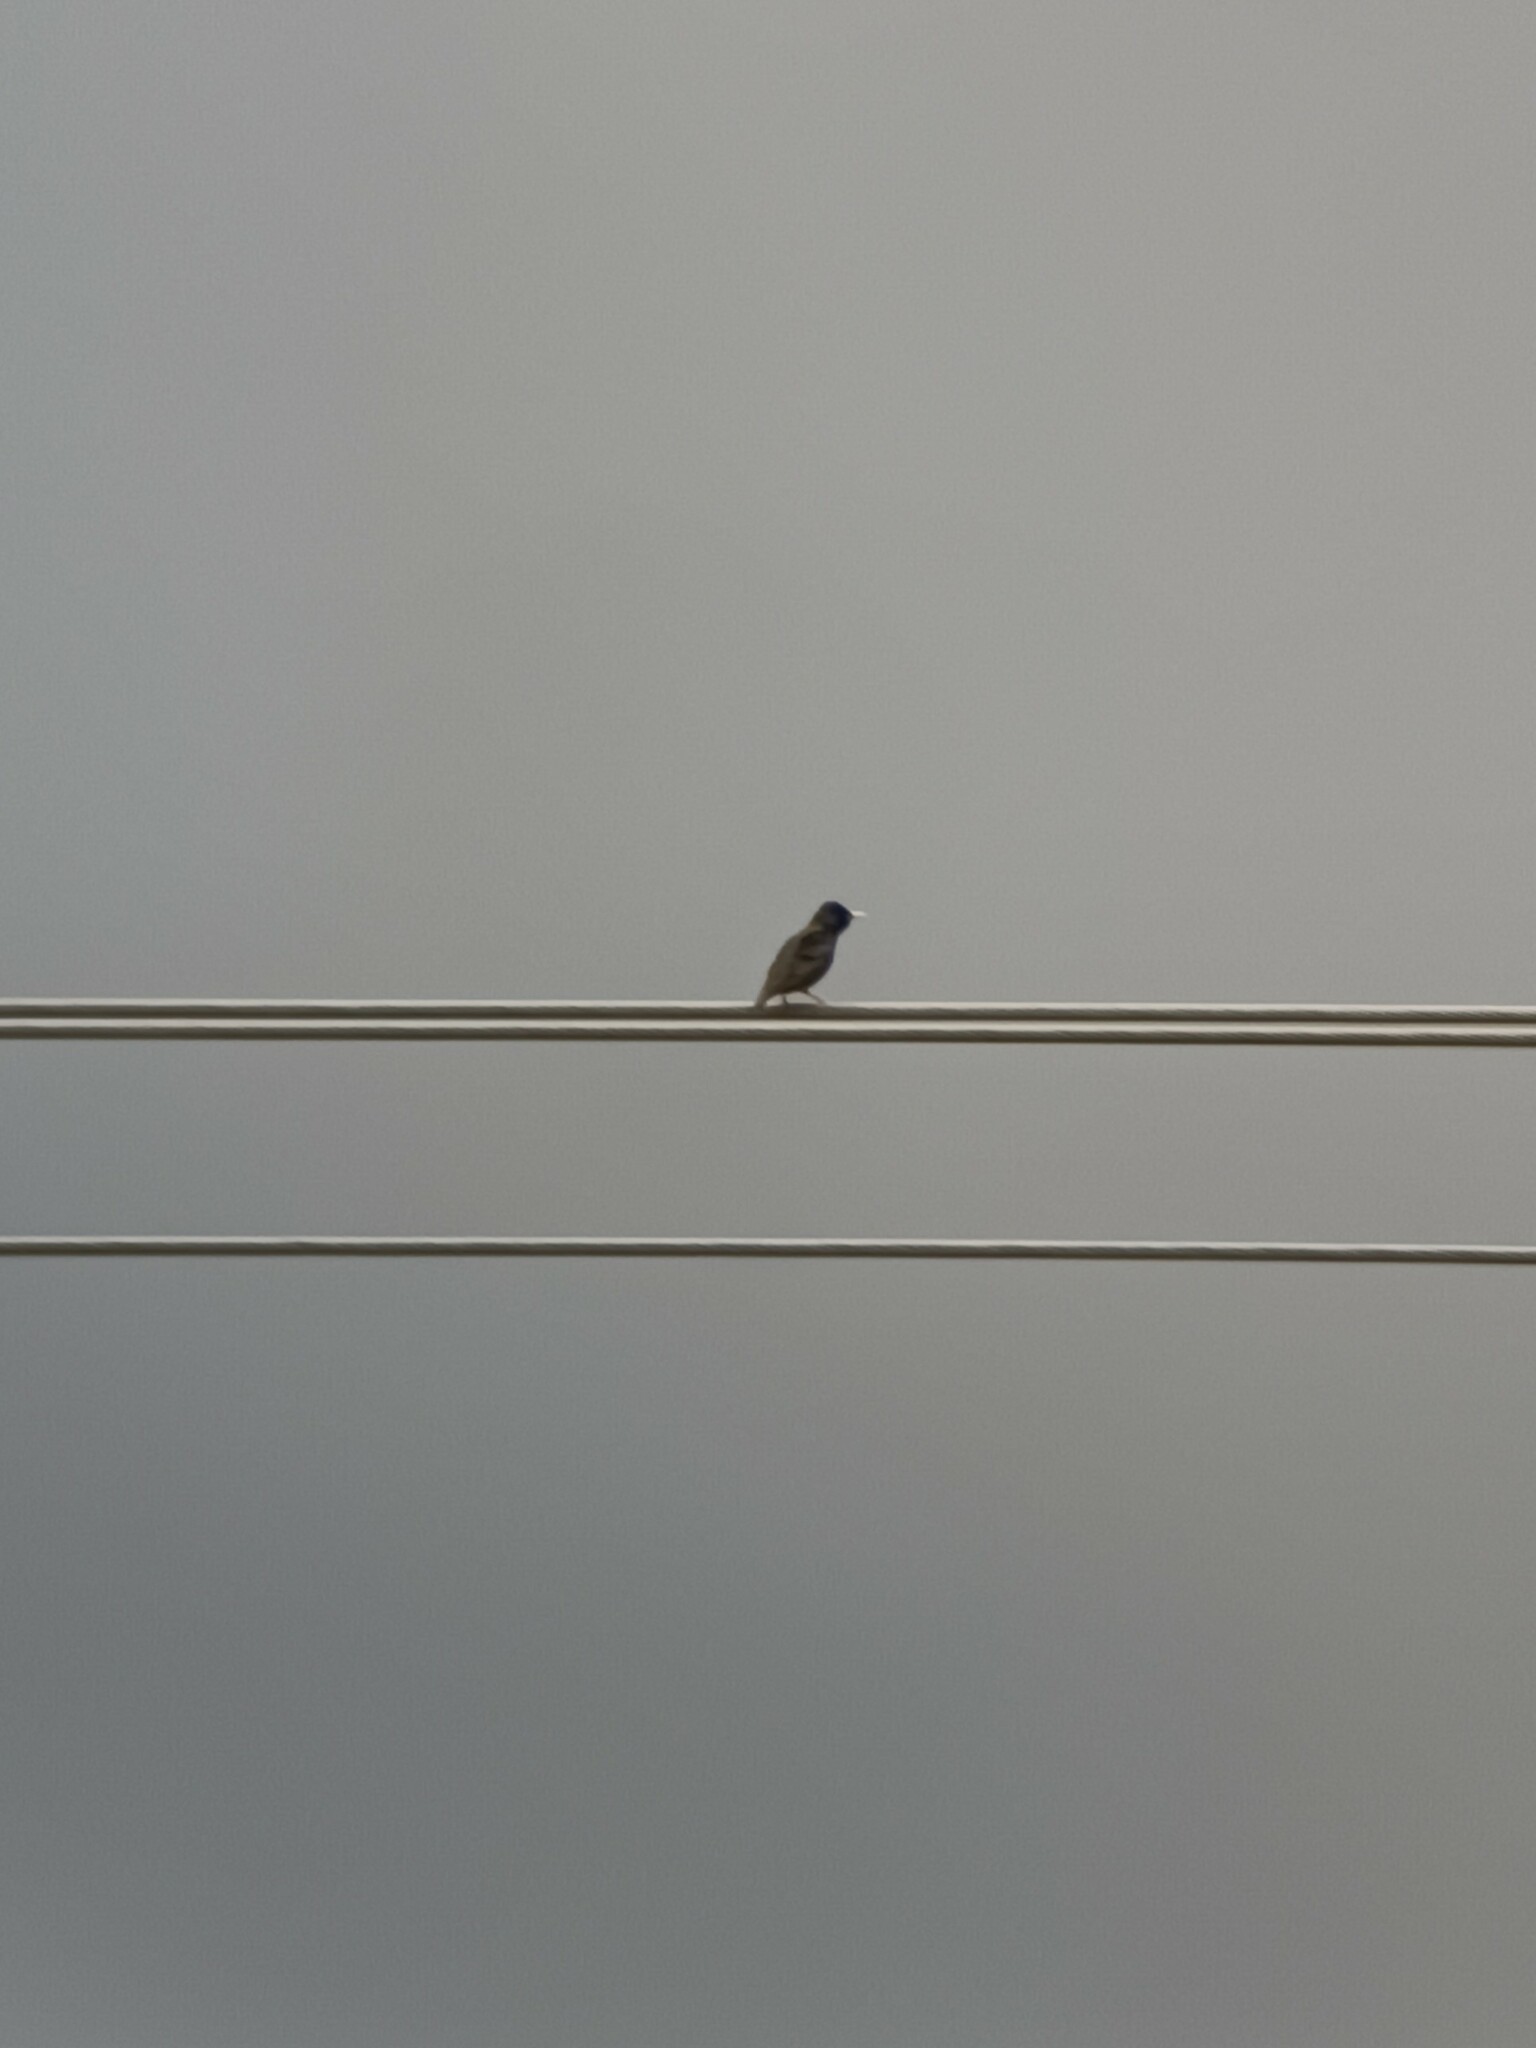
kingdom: Animalia
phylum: Chordata
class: Aves
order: Passeriformes
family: Sturnidae
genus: Sturnus
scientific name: Sturnus vulgaris
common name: Common starling
